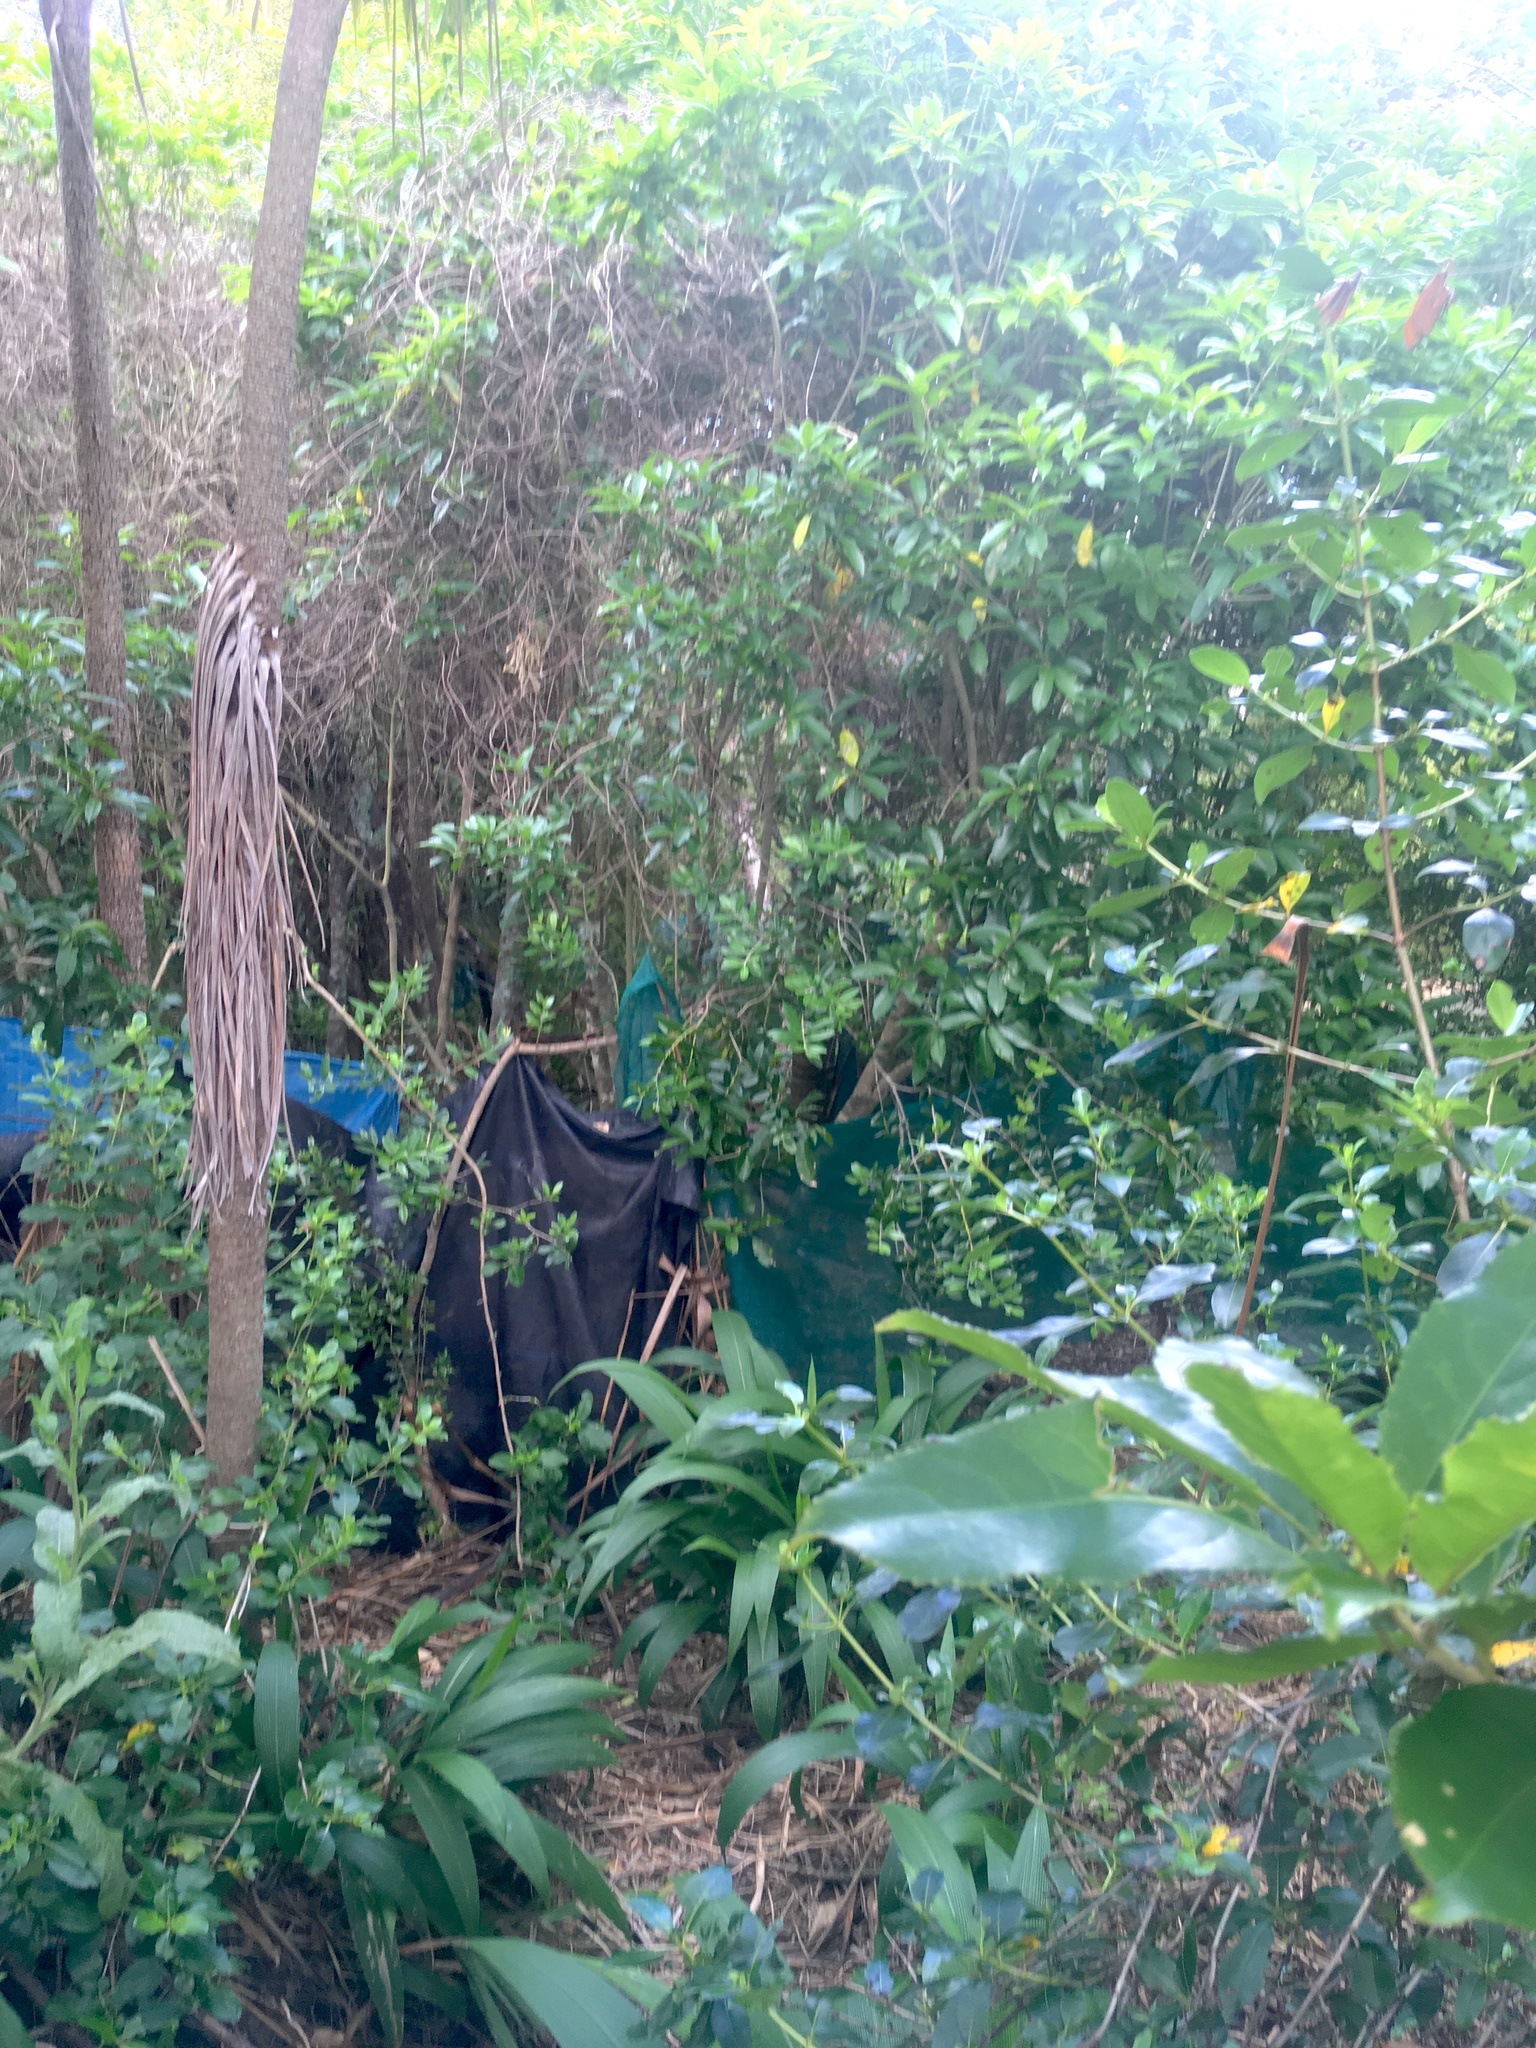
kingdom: Plantae
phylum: Tracheophyta
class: Magnoliopsida
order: Malpighiales
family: Violaceae
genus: Melicytus
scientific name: Melicytus ramiflorus
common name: Mahoe
